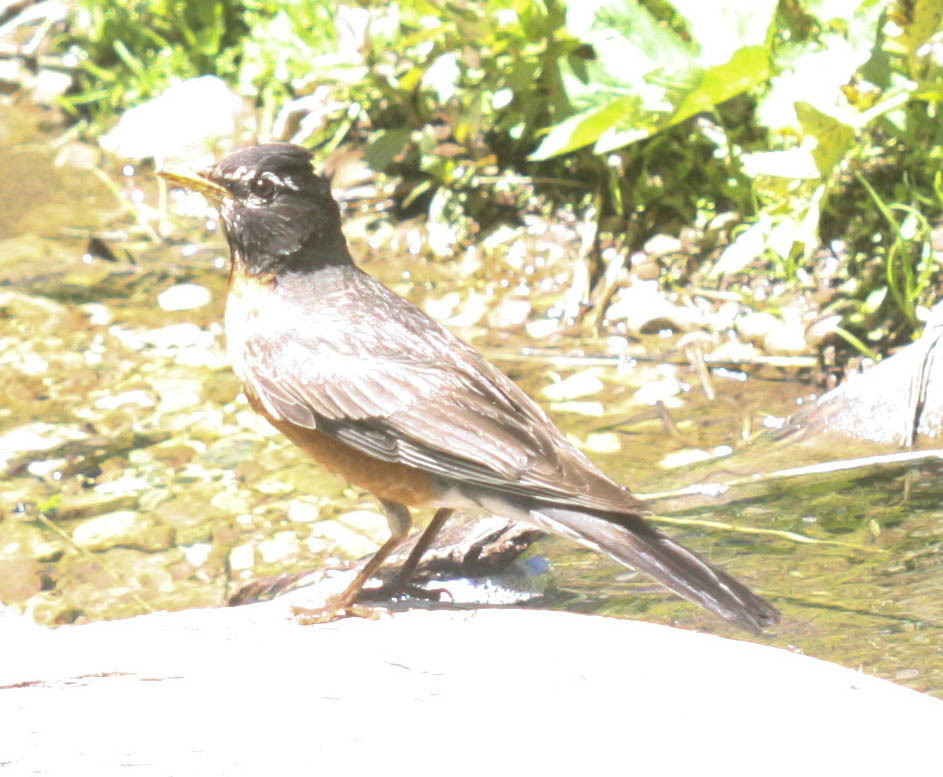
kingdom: Animalia
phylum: Chordata
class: Aves
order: Passeriformes
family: Turdidae
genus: Turdus
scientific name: Turdus migratorius
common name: American robin
